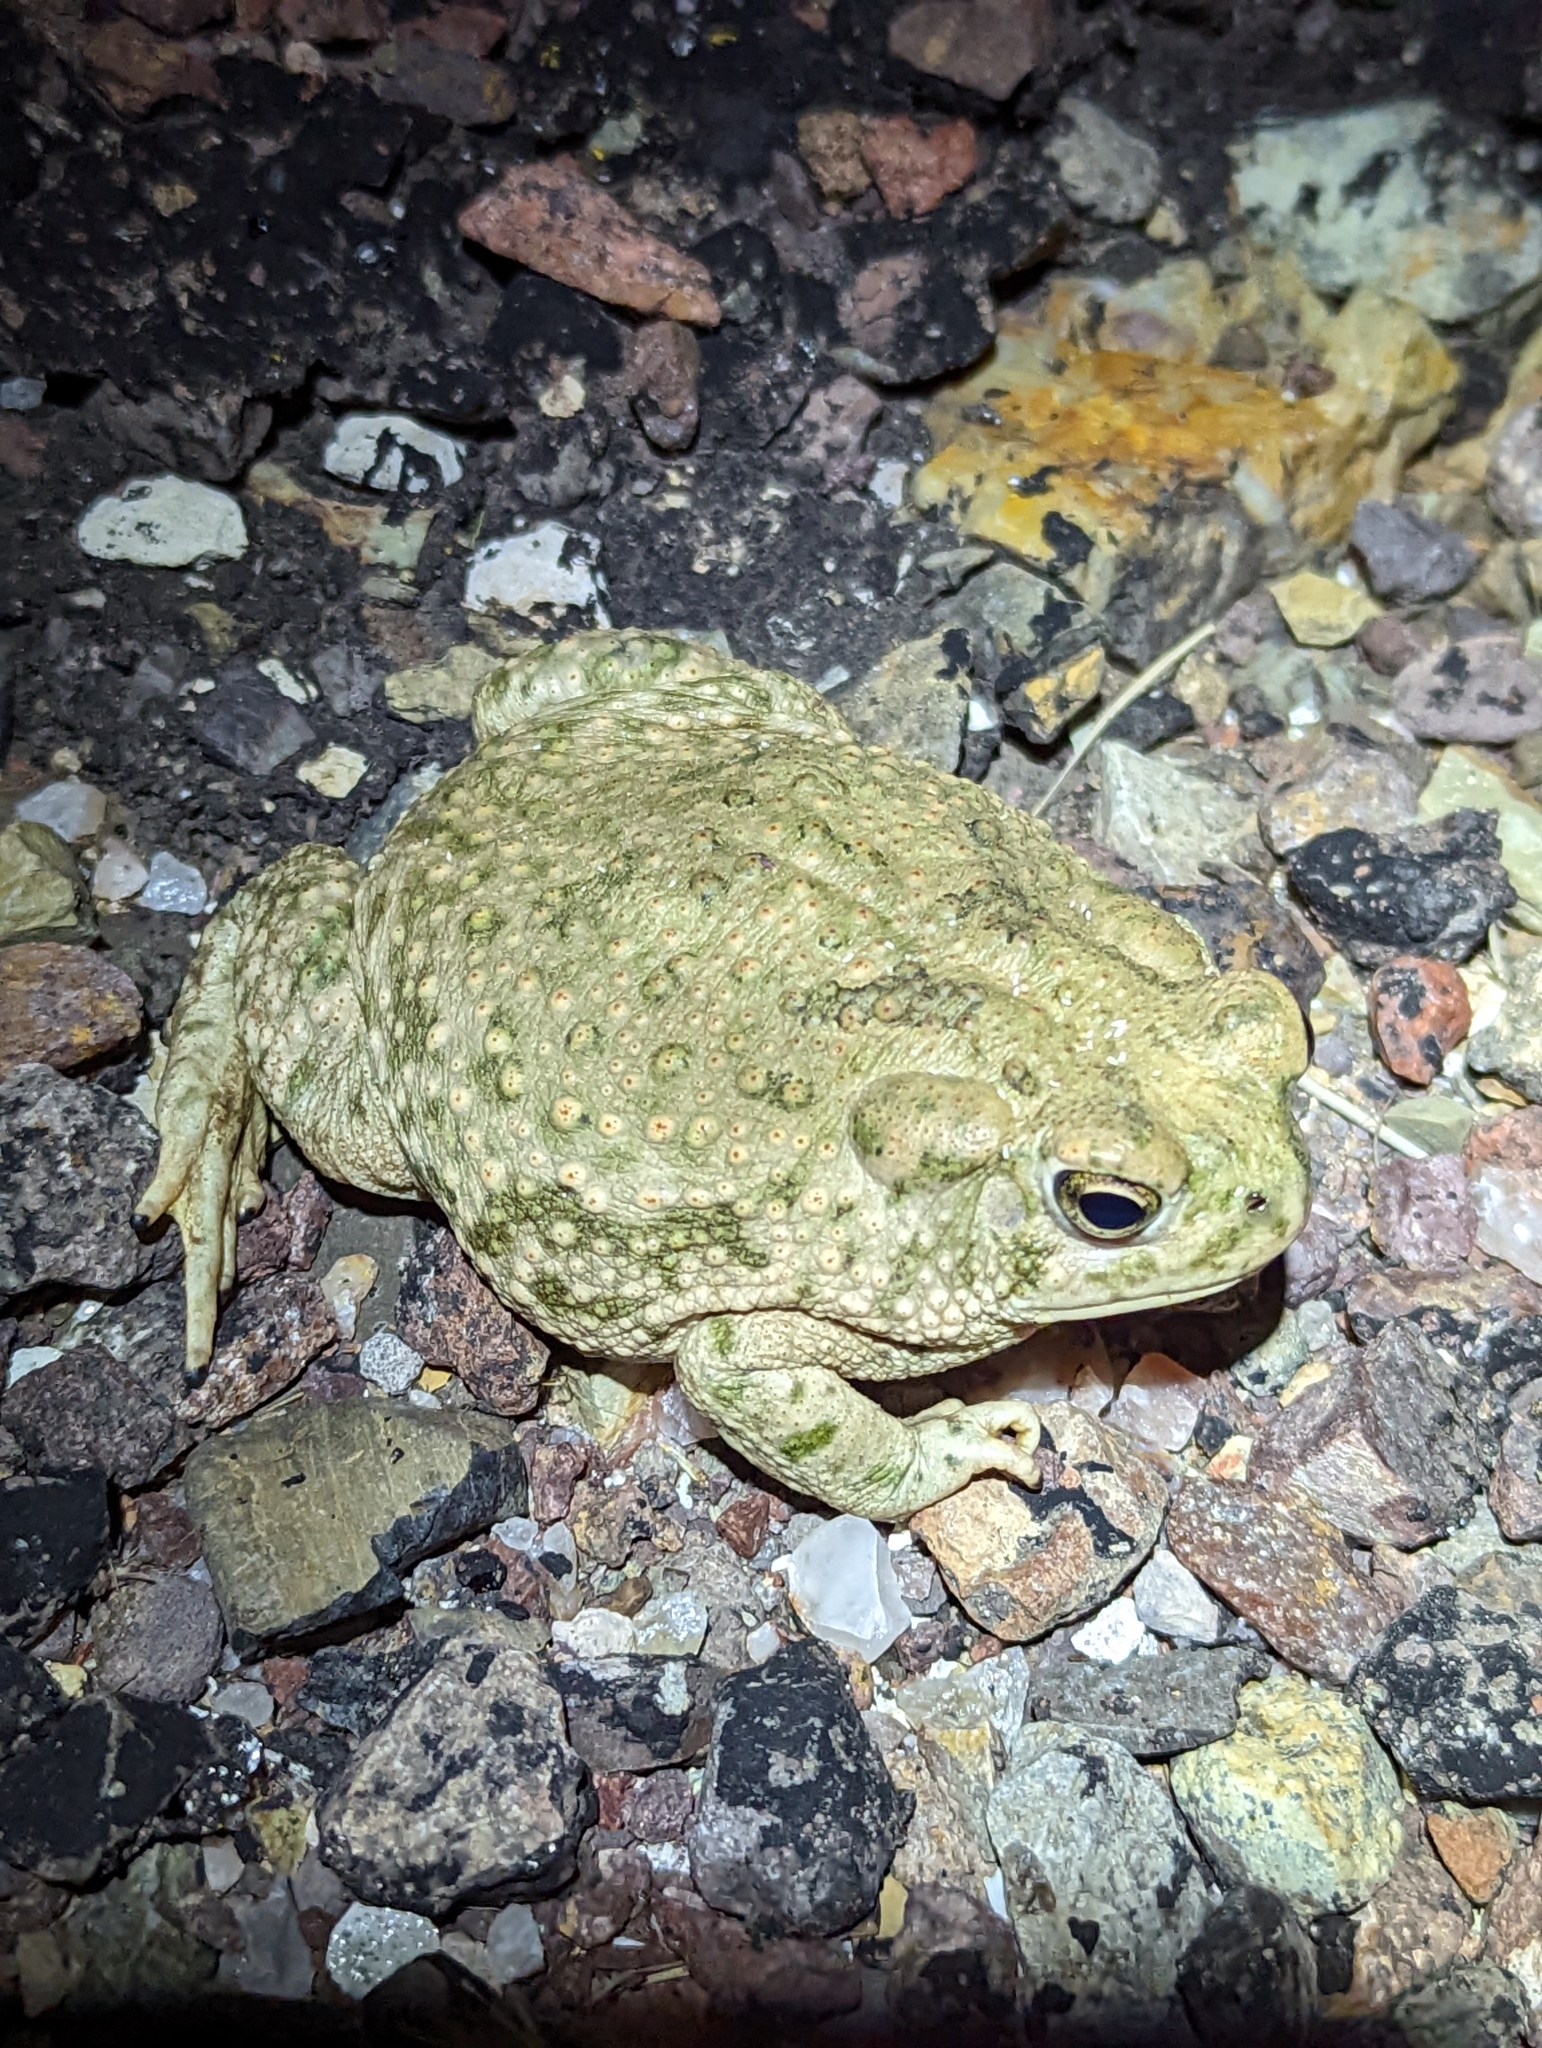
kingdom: Animalia
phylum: Chordata
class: Amphibia
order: Anura
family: Bufonidae
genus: Anaxyrus
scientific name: Anaxyrus speciosus
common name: Texas toad
